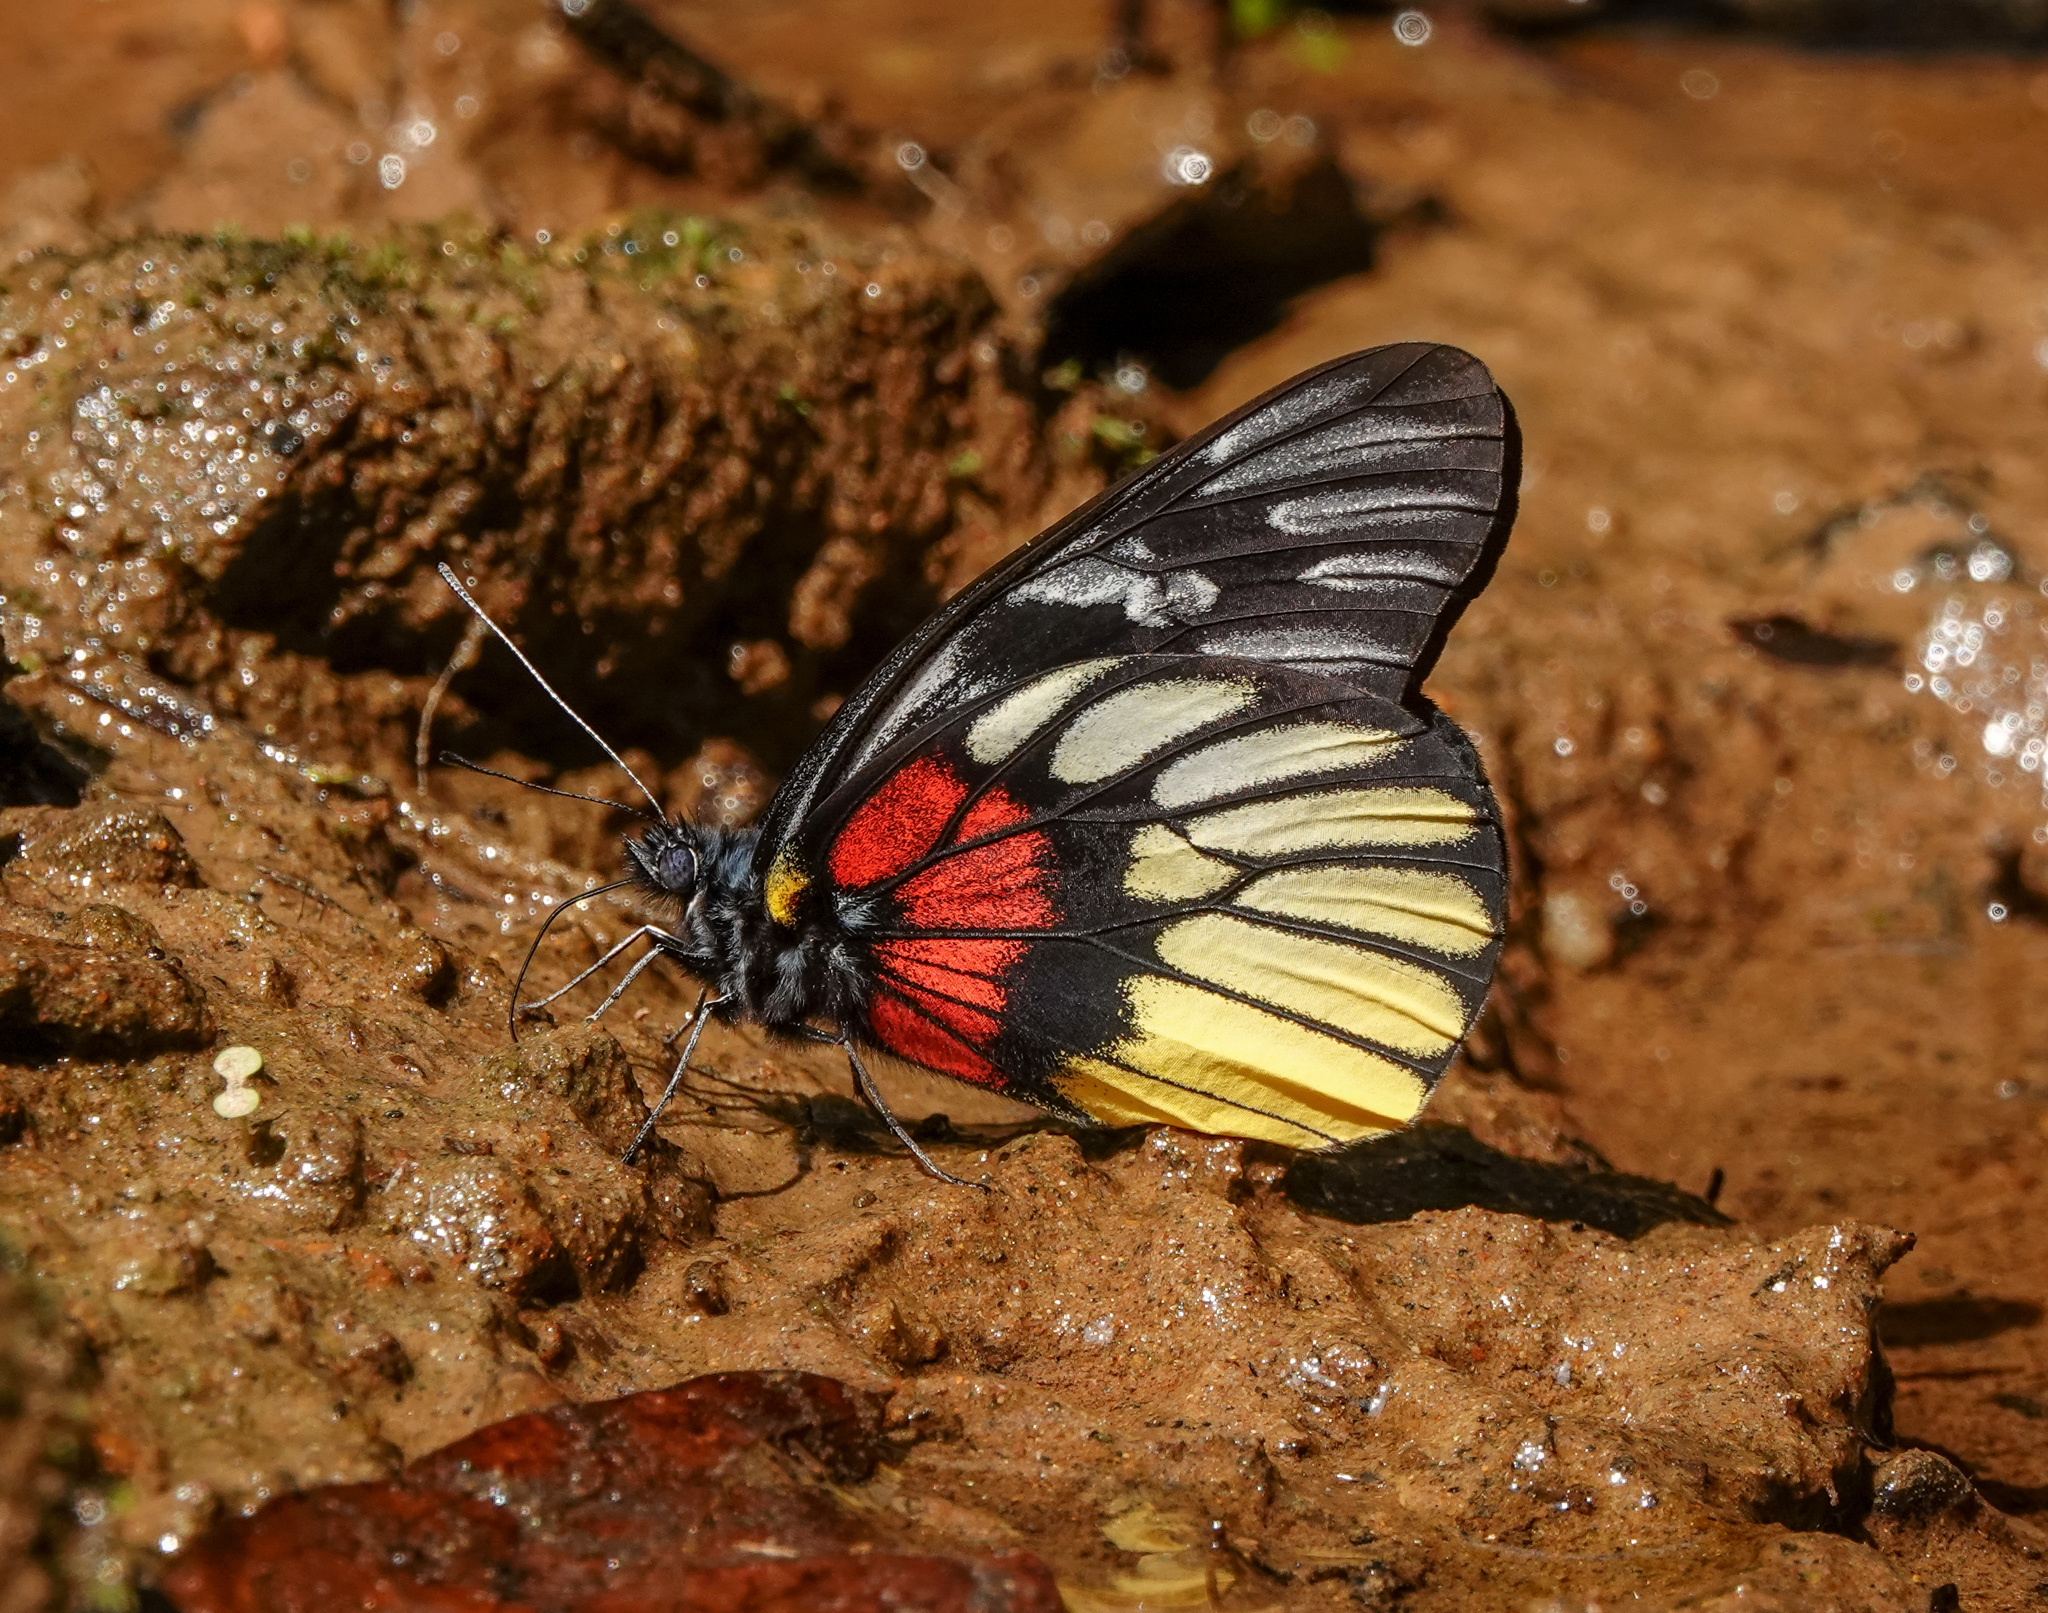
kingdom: Animalia
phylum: Arthropoda
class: Insecta
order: Lepidoptera
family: Pieridae
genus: Delias
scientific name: Delias acalis
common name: Red-breast jezebel
